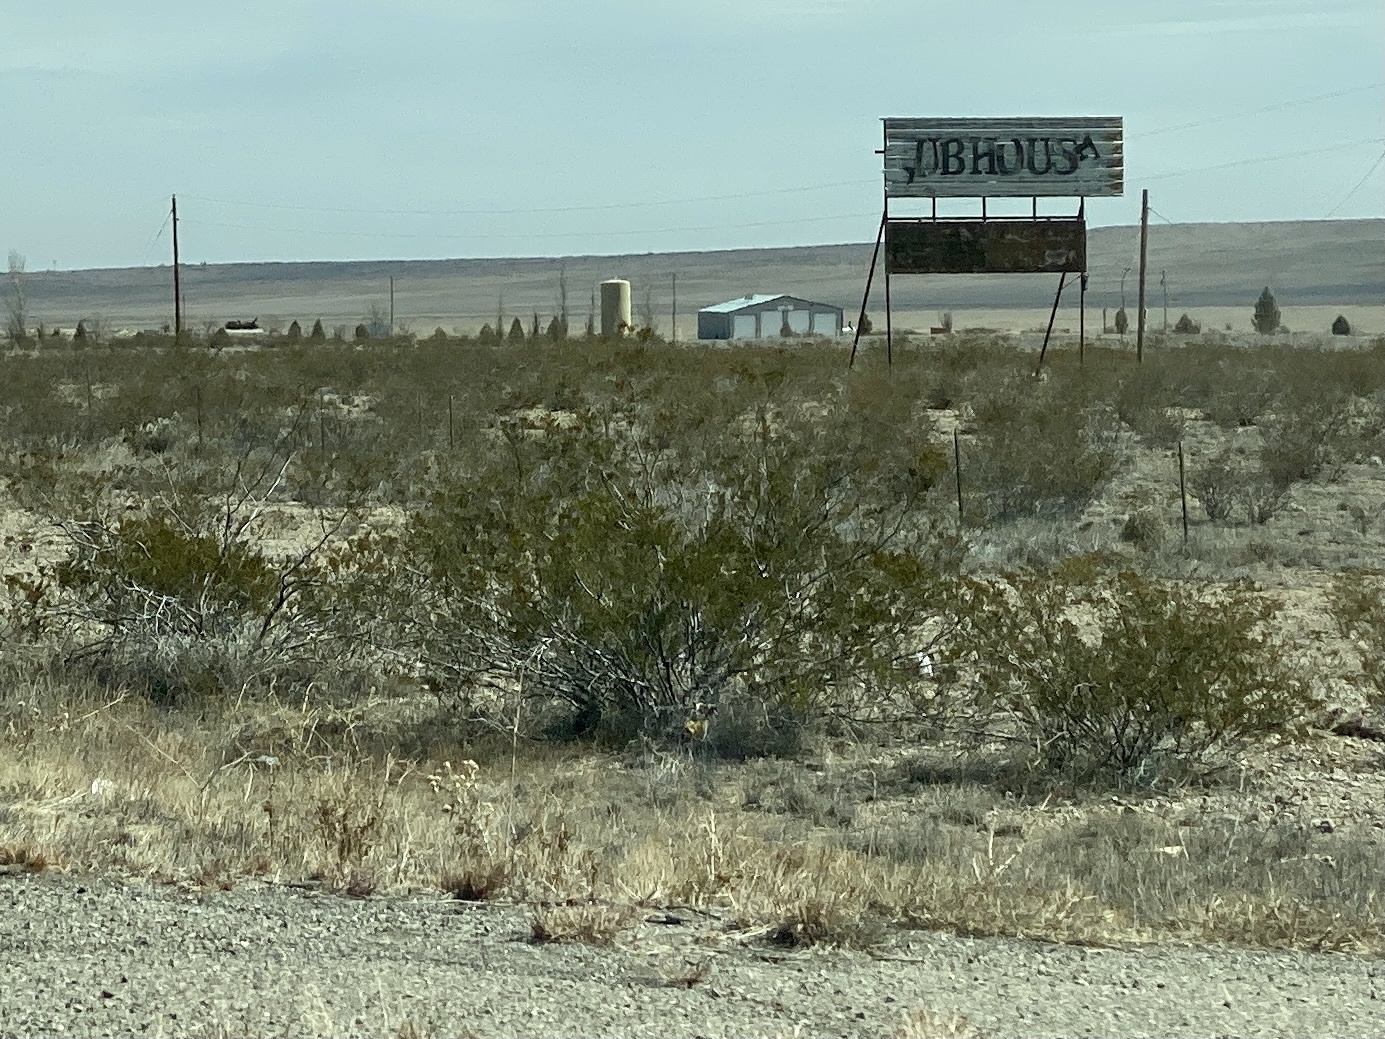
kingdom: Plantae
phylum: Tracheophyta
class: Magnoliopsida
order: Zygophyllales
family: Zygophyllaceae
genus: Larrea
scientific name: Larrea tridentata
